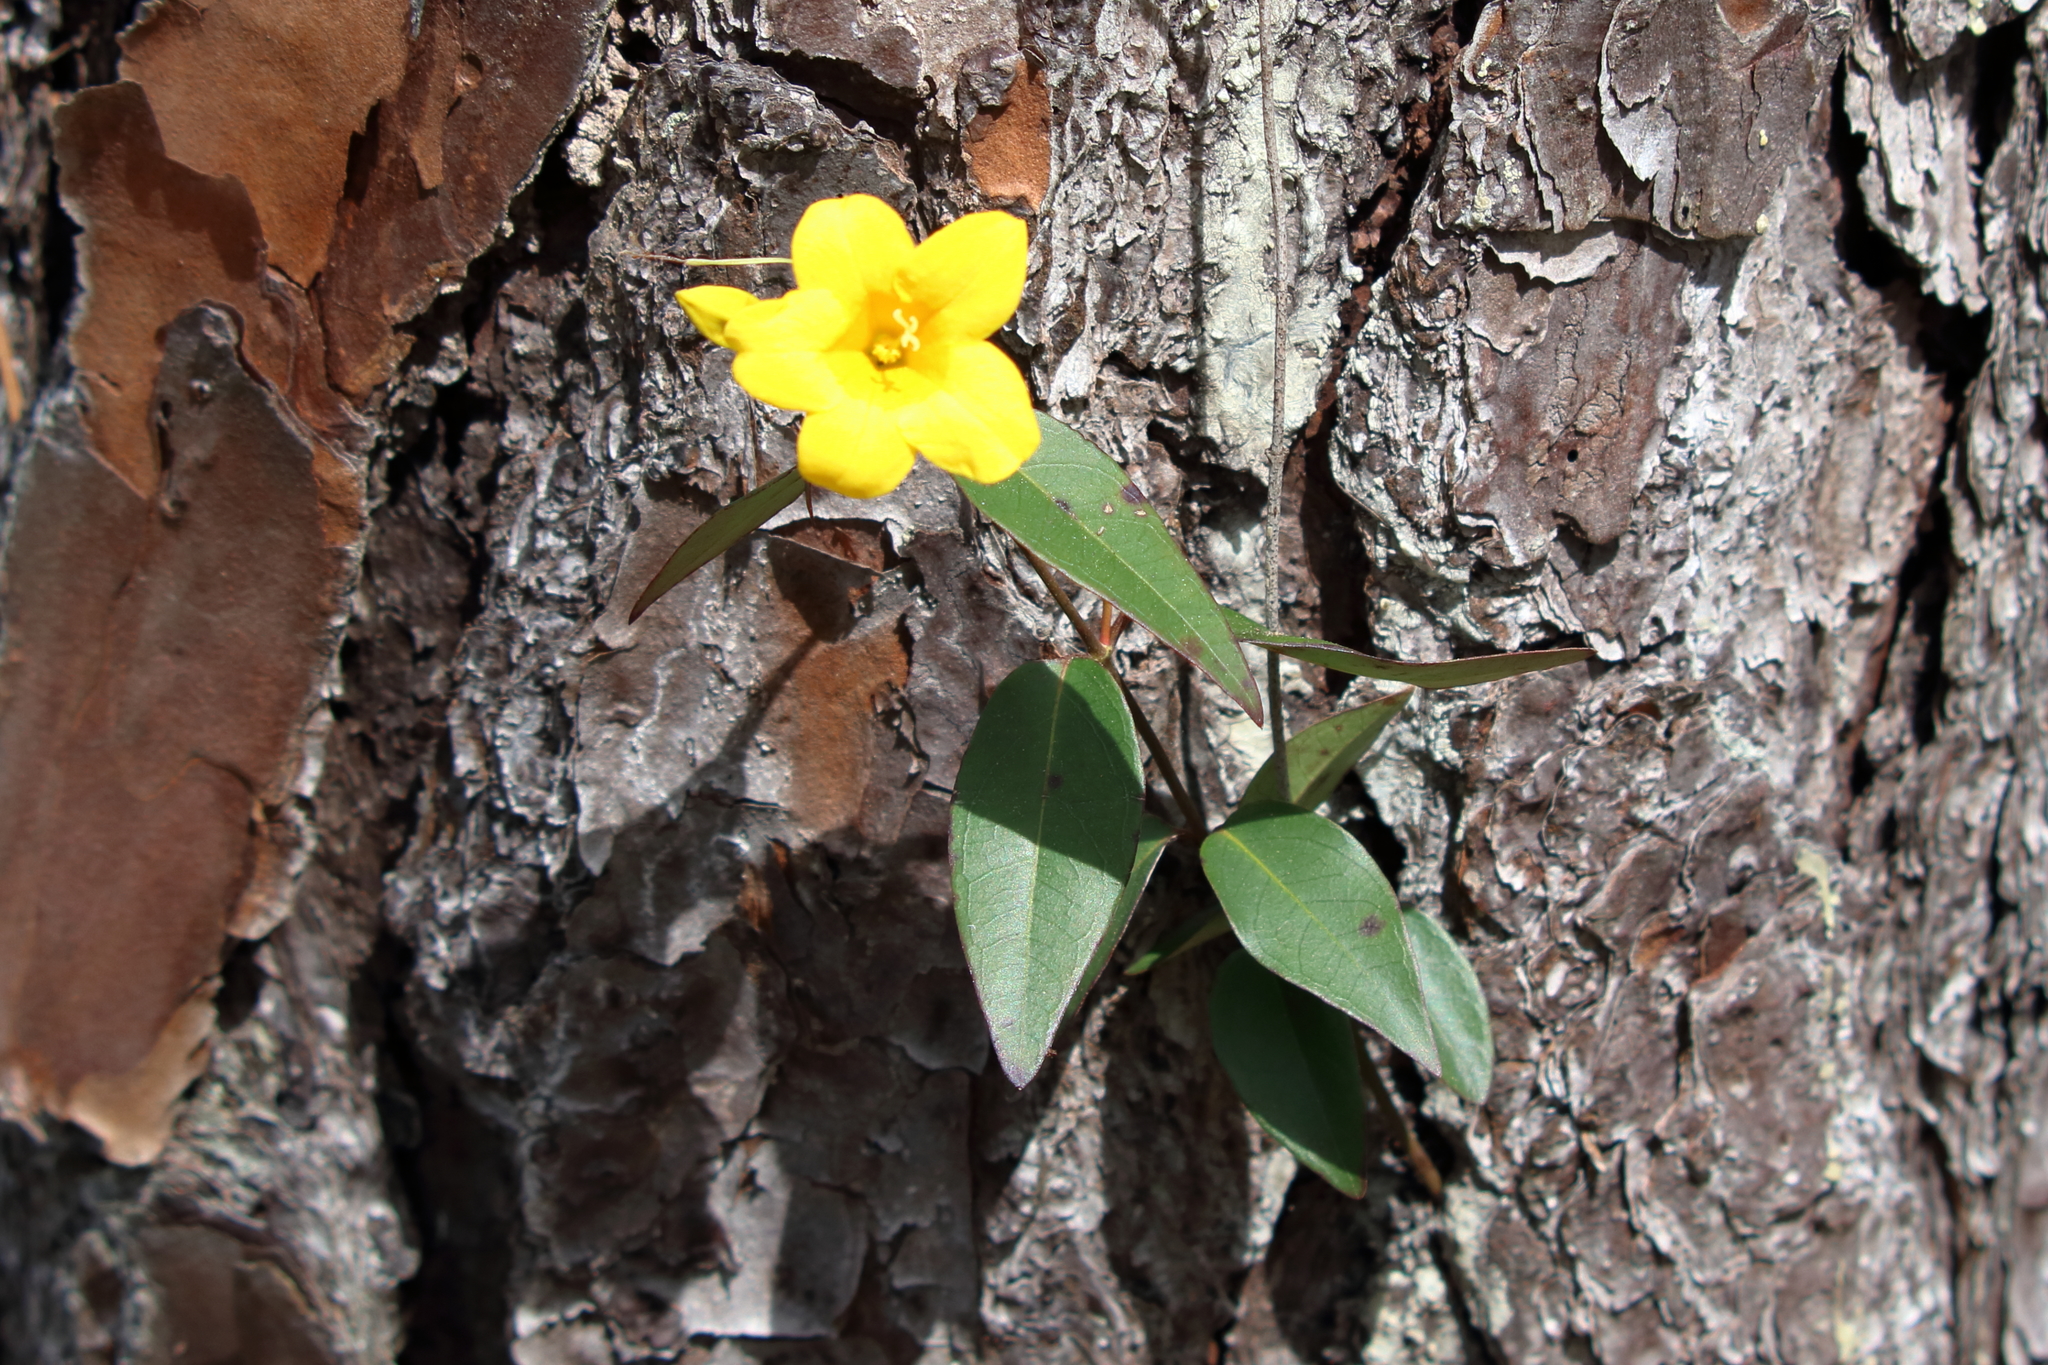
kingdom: Plantae
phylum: Tracheophyta
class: Magnoliopsida
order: Gentianales
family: Gelsemiaceae
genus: Gelsemium
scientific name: Gelsemium sempervirens
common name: Carolina-jasmine
